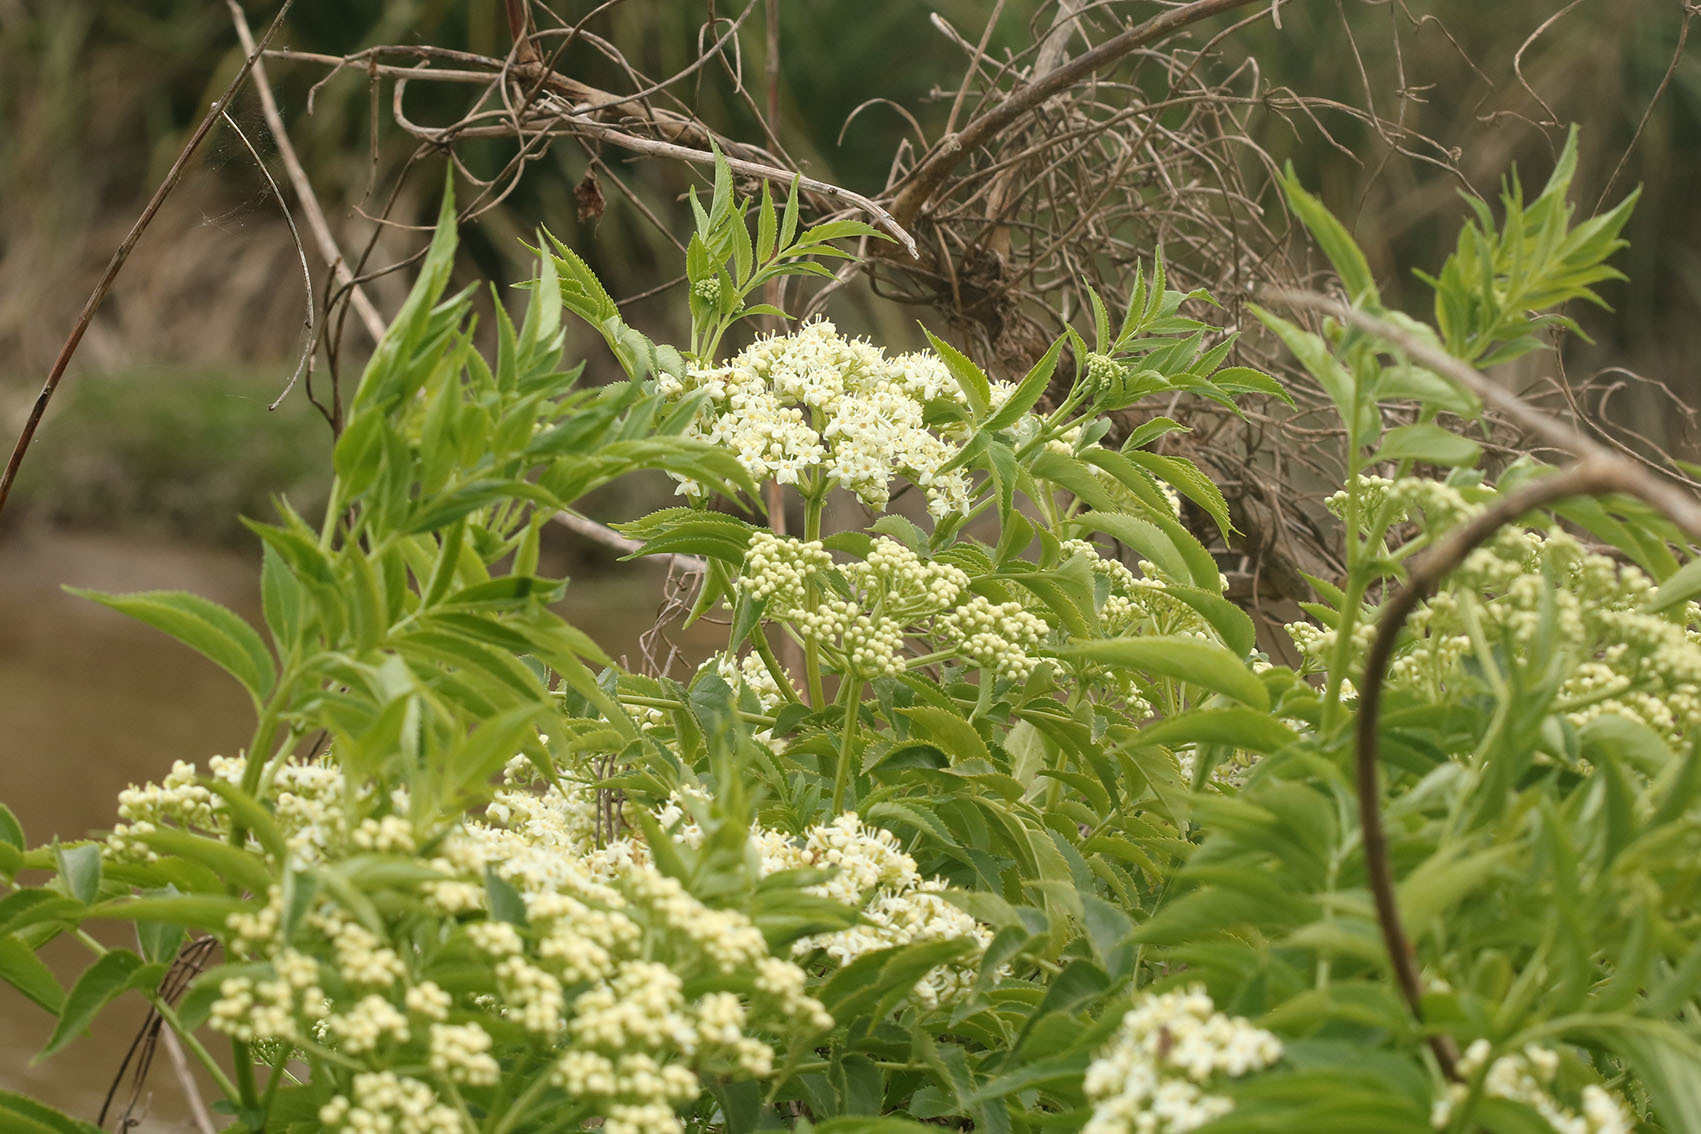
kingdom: Plantae
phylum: Tracheophyta
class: Magnoliopsida
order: Dipsacales
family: Viburnaceae
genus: Sambucus
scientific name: Sambucus australis
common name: Southern elder
